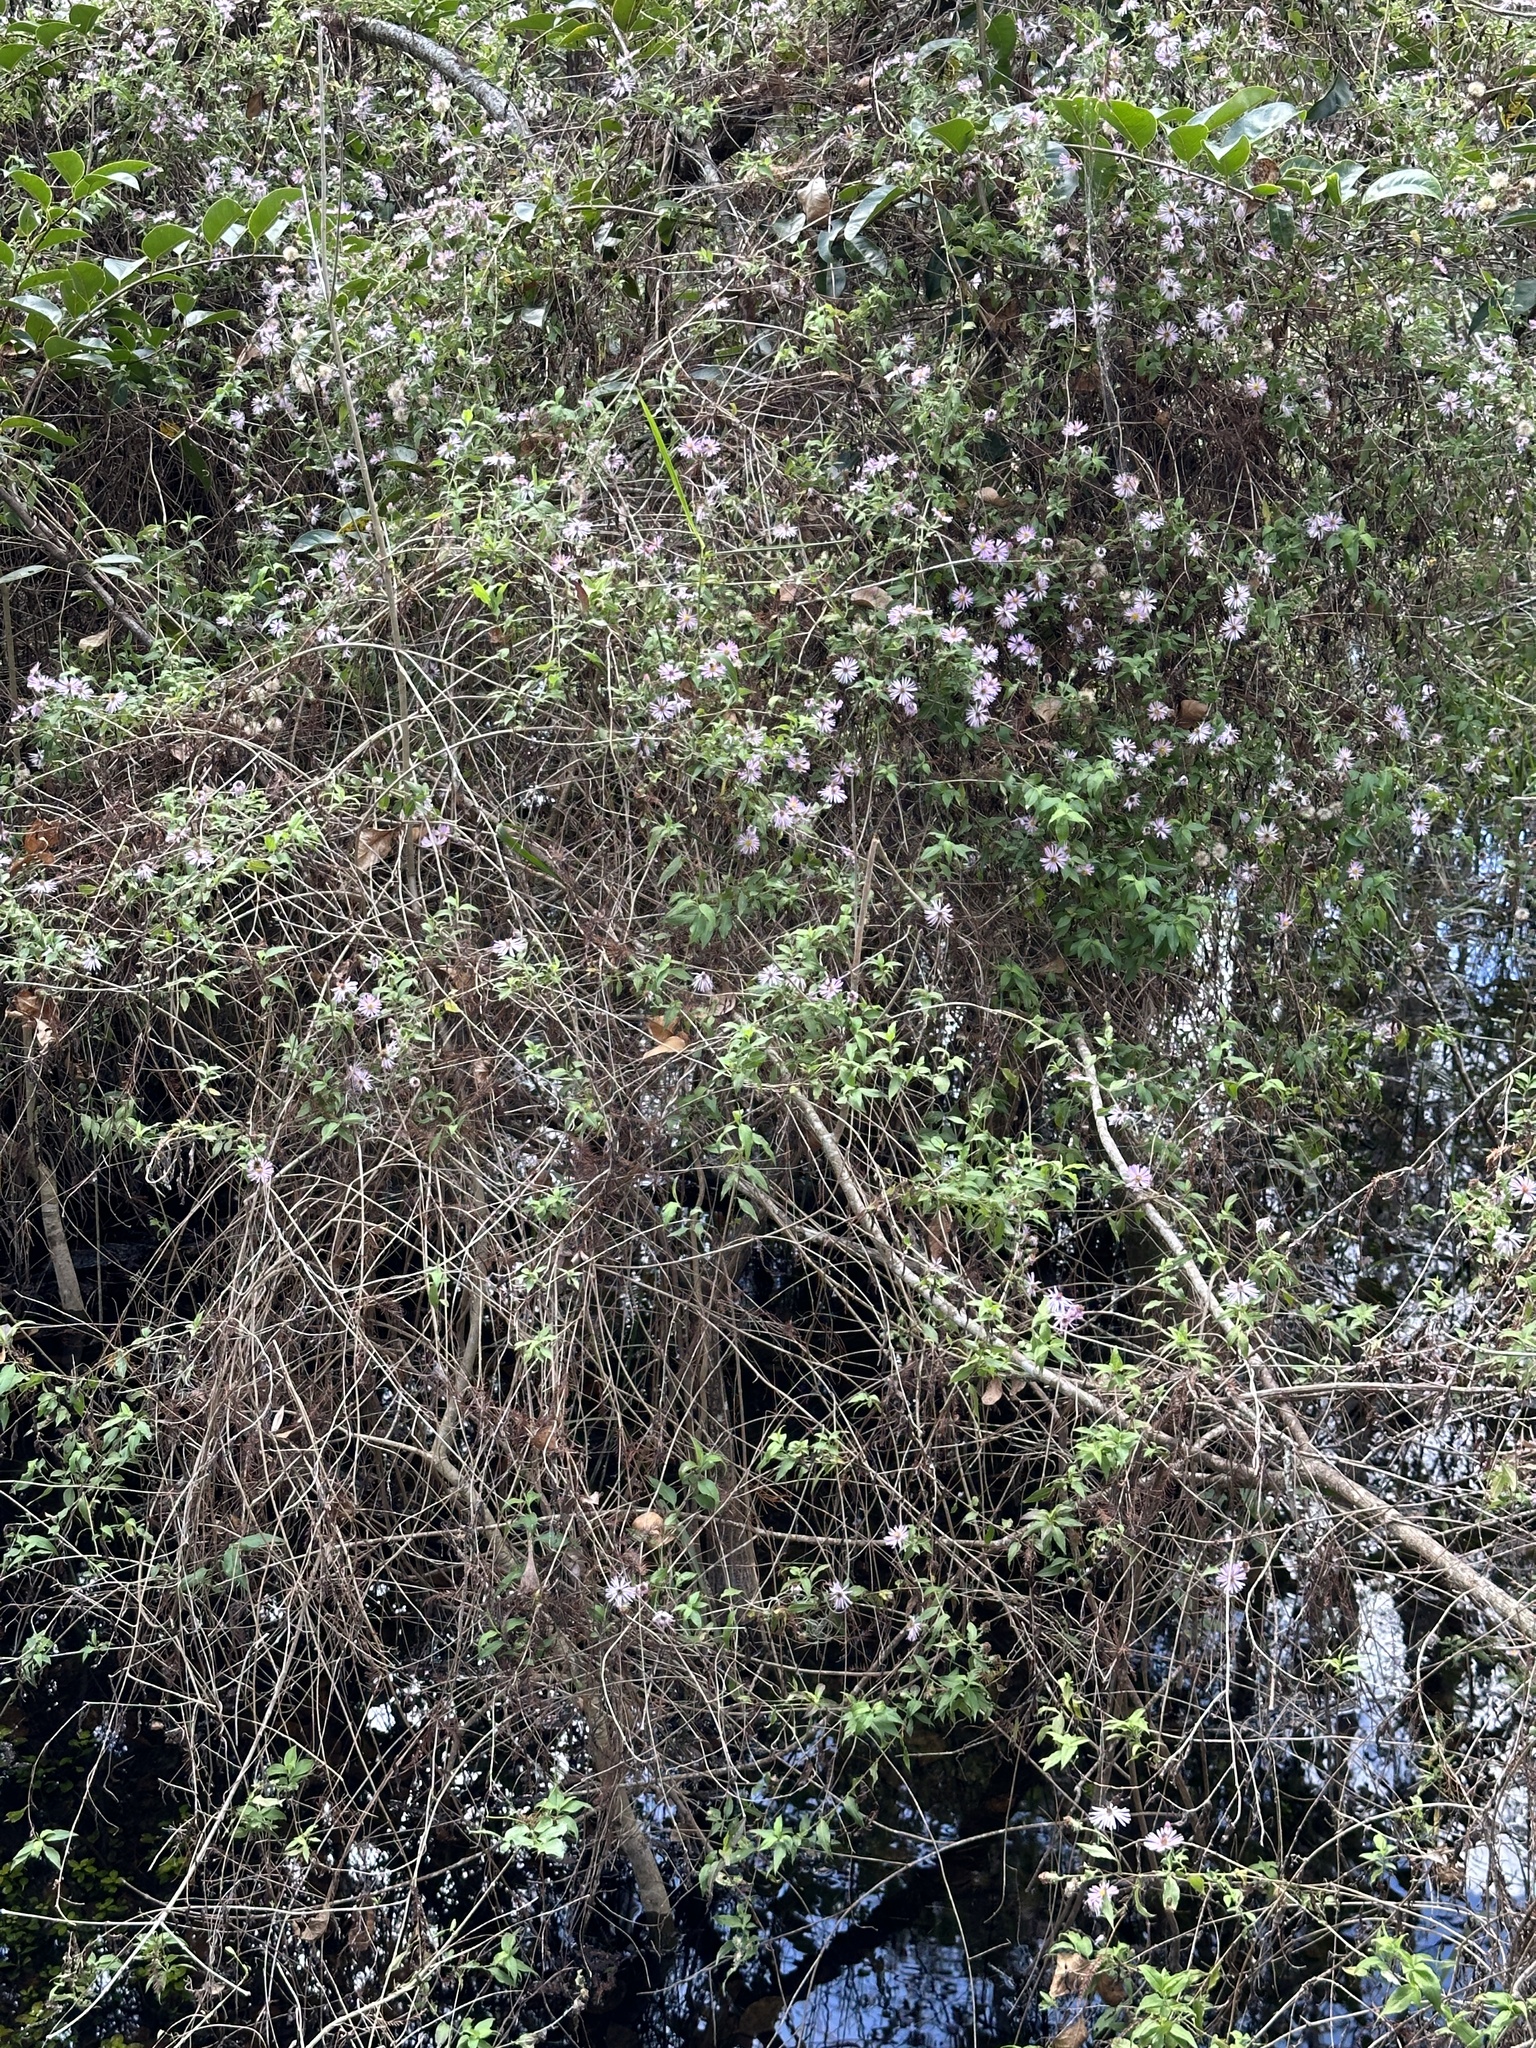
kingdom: Plantae
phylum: Tracheophyta
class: Magnoliopsida
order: Asterales
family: Asteraceae
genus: Ampelaster
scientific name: Ampelaster carolinianus
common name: Climbing aster
